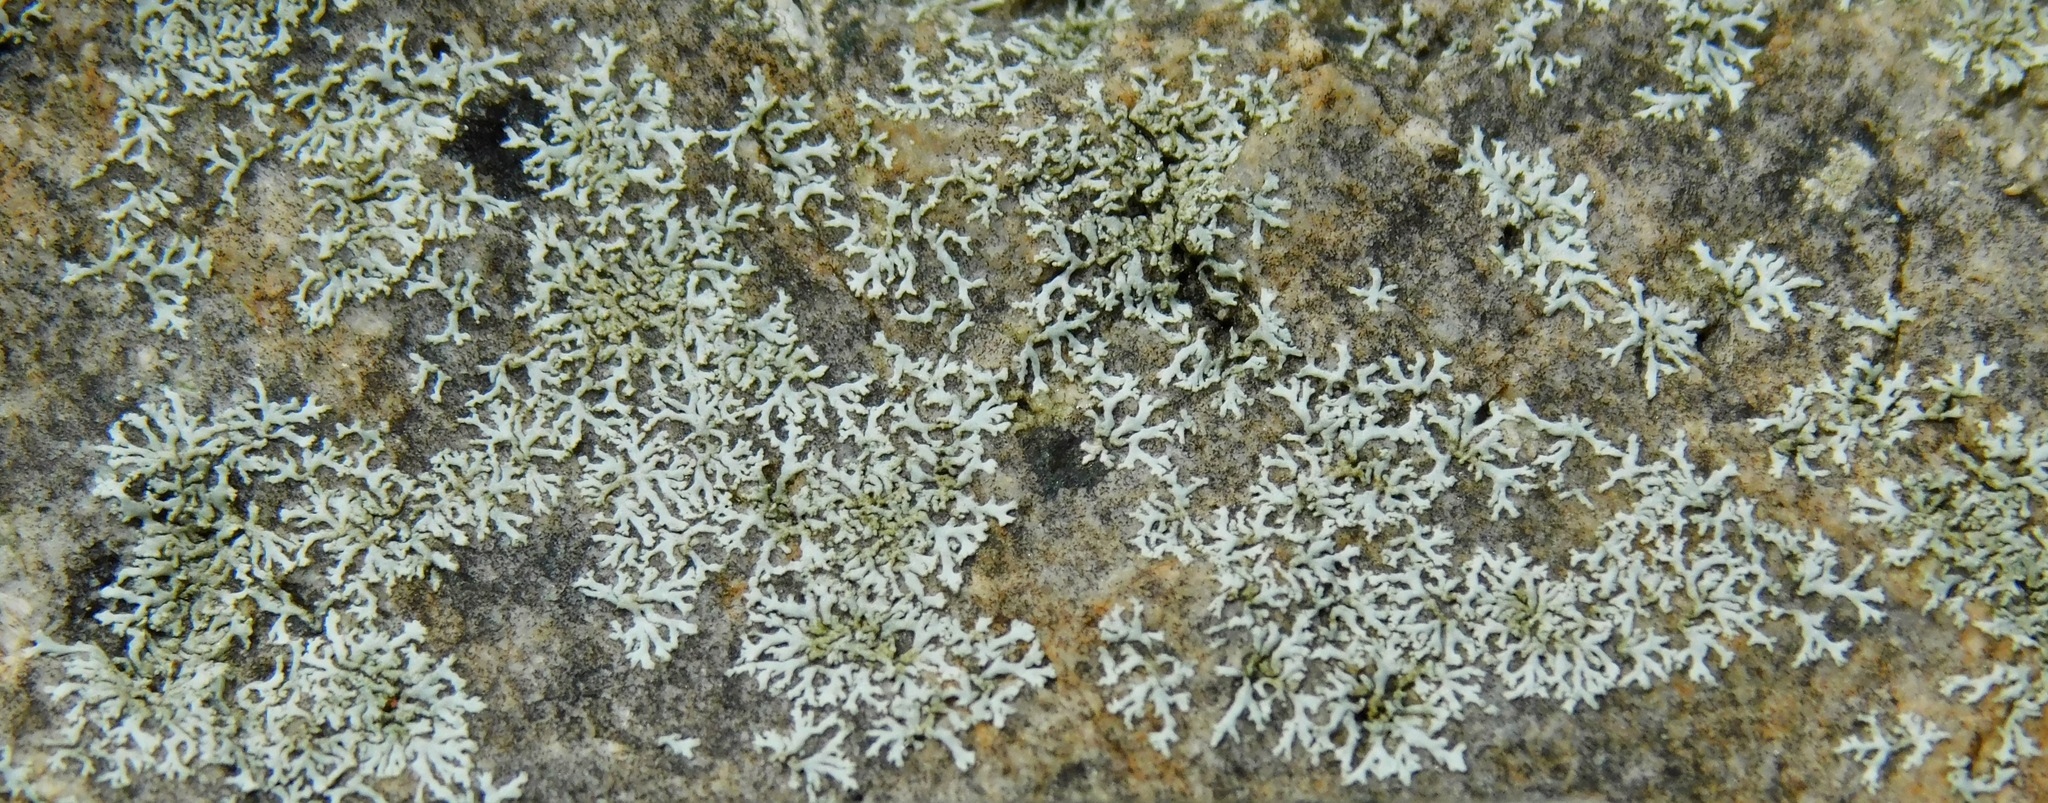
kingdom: Fungi
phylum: Ascomycota
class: Lecanoromycetes
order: Caliciales
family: Physciaceae
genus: Physcia
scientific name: Physcia subtilis
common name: Slender rosette lichen
